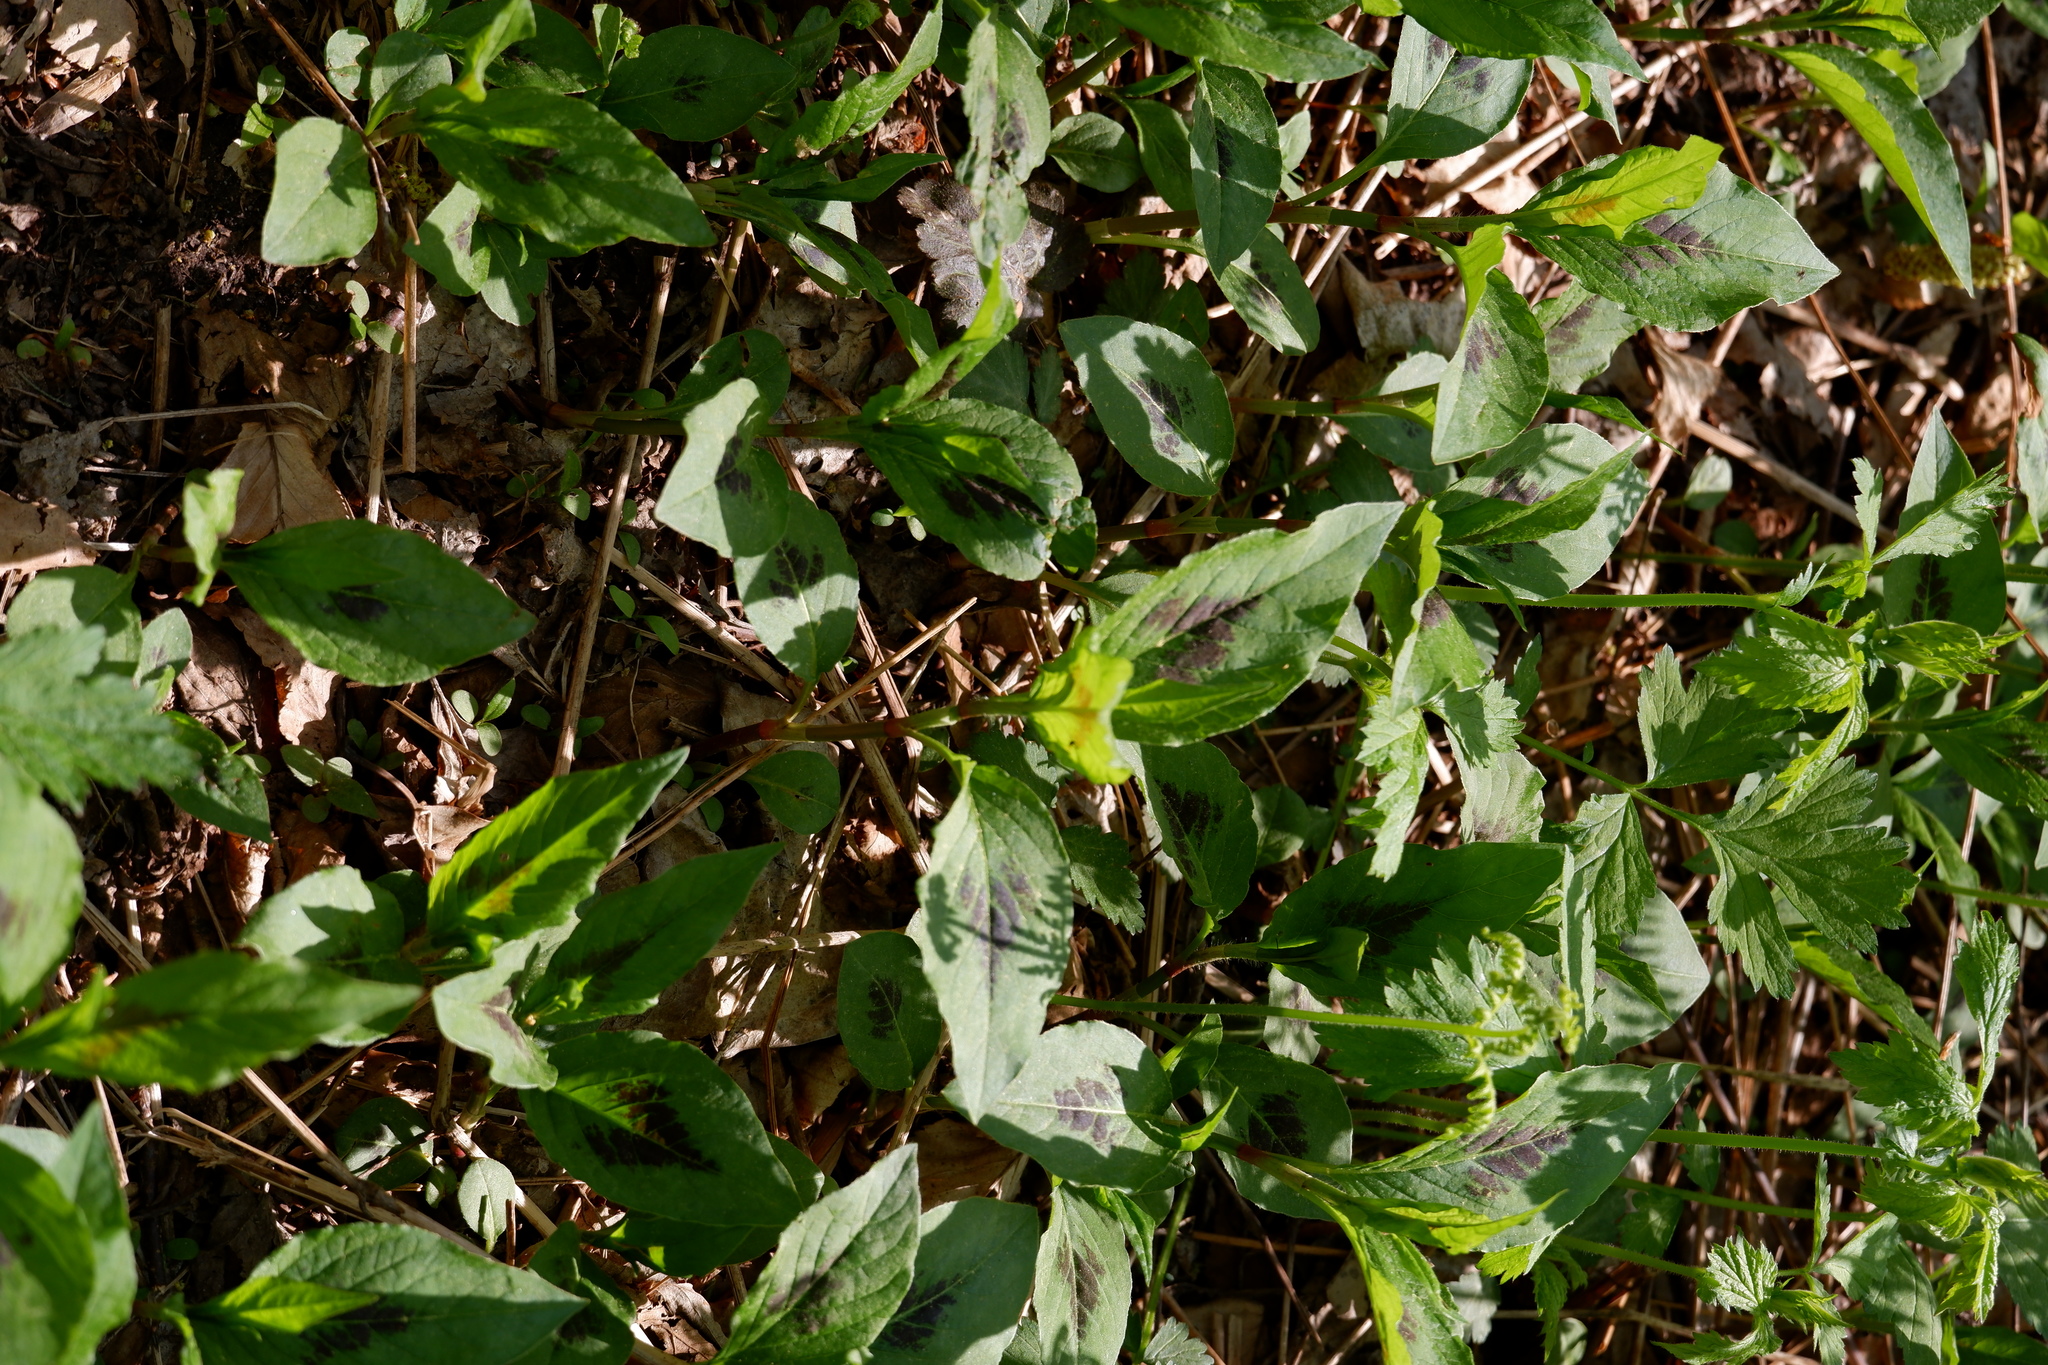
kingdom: Plantae
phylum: Tracheophyta
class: Magnoliopsida
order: Caryophyllales
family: Polygonaceae
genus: Persicaria
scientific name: Persicaria virginiana
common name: Jumpseed
